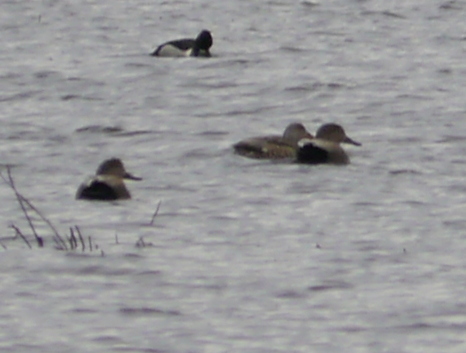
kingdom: Animalia
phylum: Chordata
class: Aves
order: Anseriformes
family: Anatidae
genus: Mareca
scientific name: Mareca strepera
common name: Gadwall
